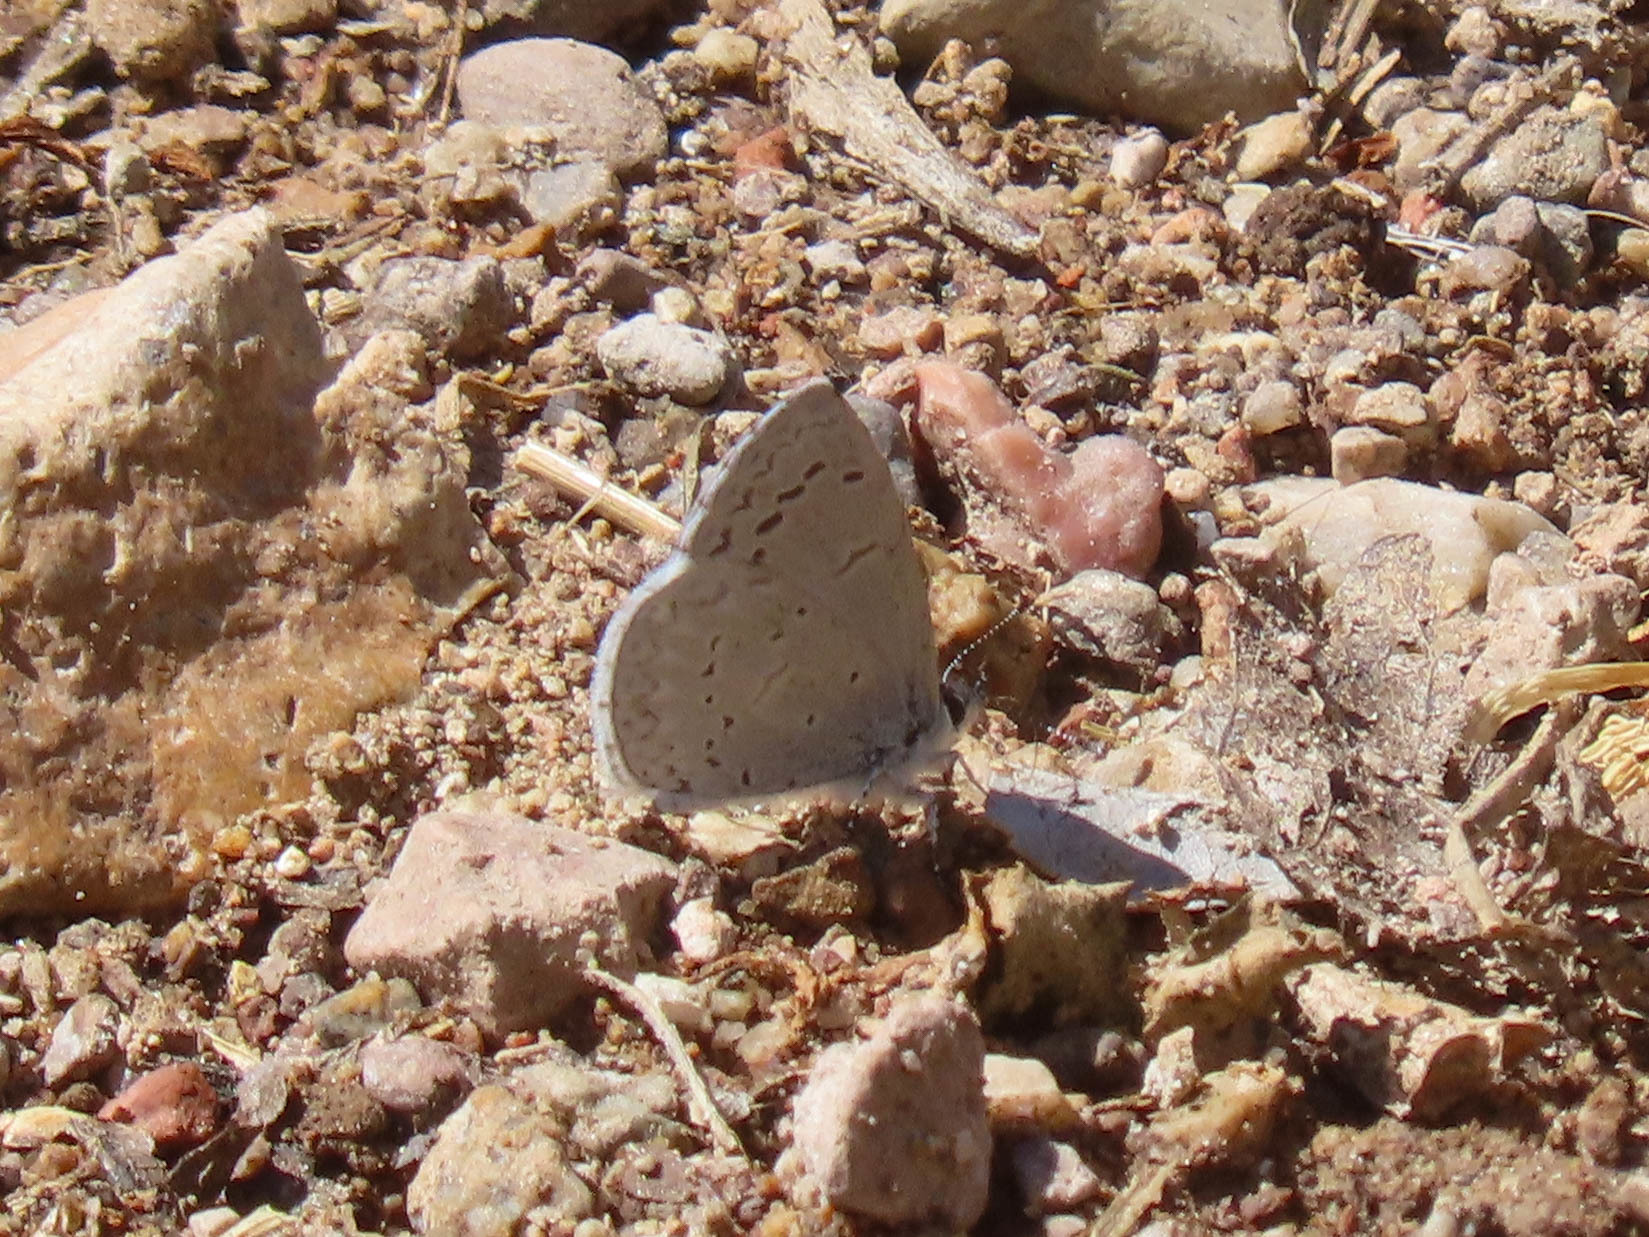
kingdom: Animalia
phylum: Arthropoda
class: Insecta
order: Lepidoptera
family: Lycaenidae
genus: Celastrina
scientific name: Celastrina ladon
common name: Spring azure
